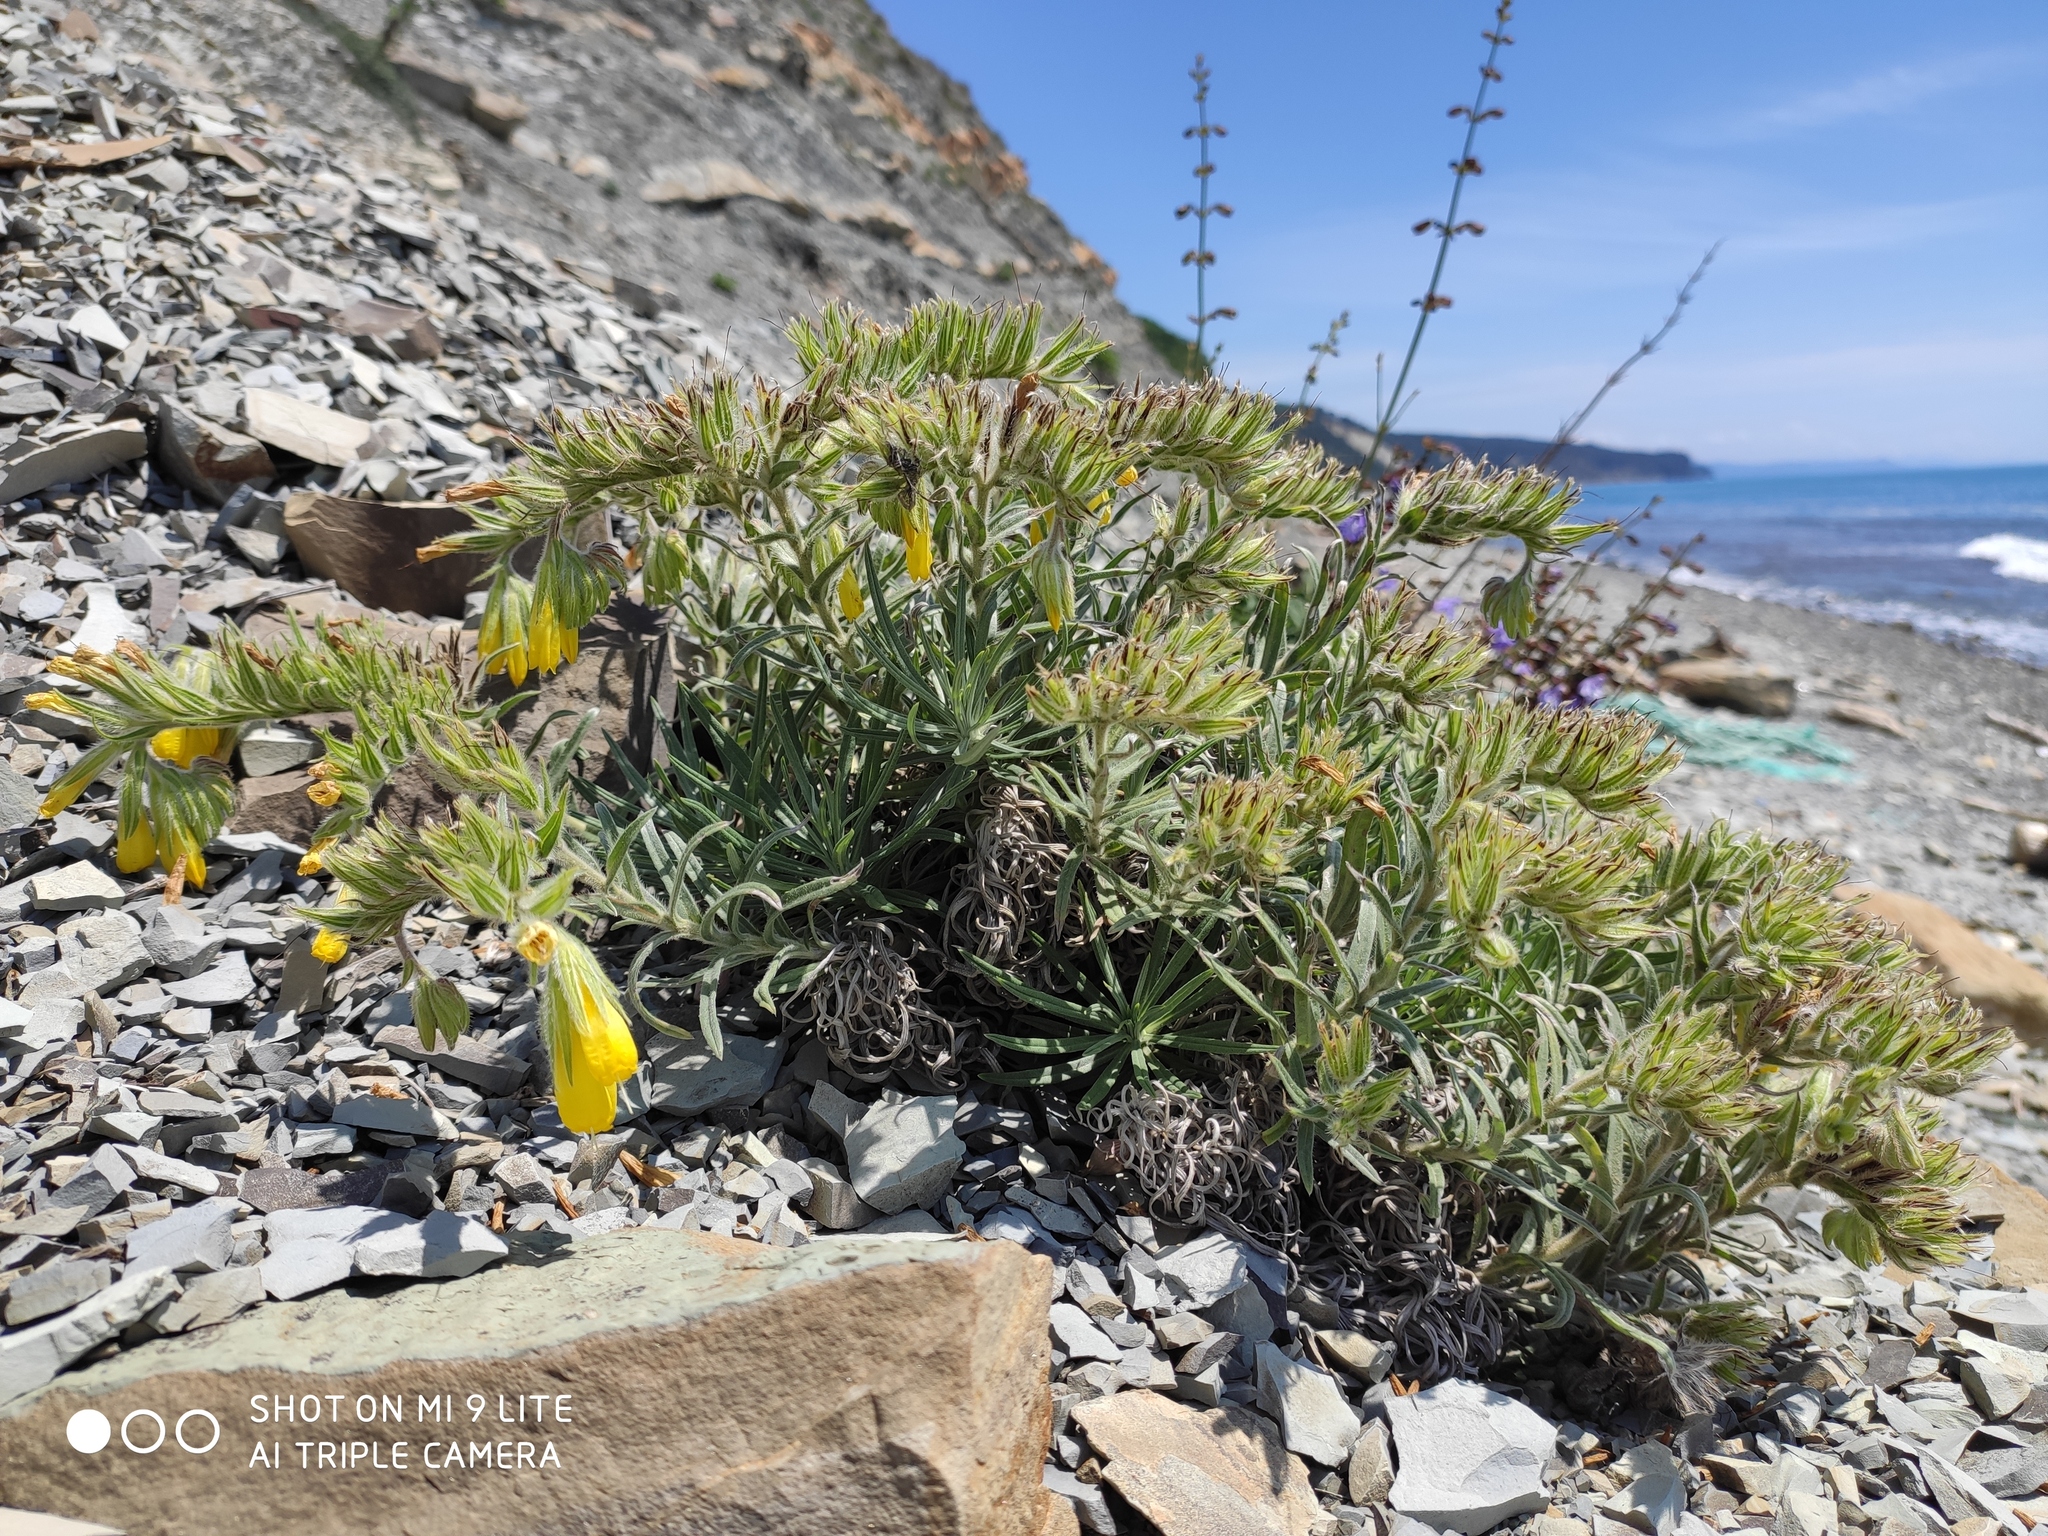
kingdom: Plantae
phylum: Tracheophyta
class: Magnoliopsida
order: Boraginales
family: Boraginaceae
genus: Onosma
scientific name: Onosma polyphylla
